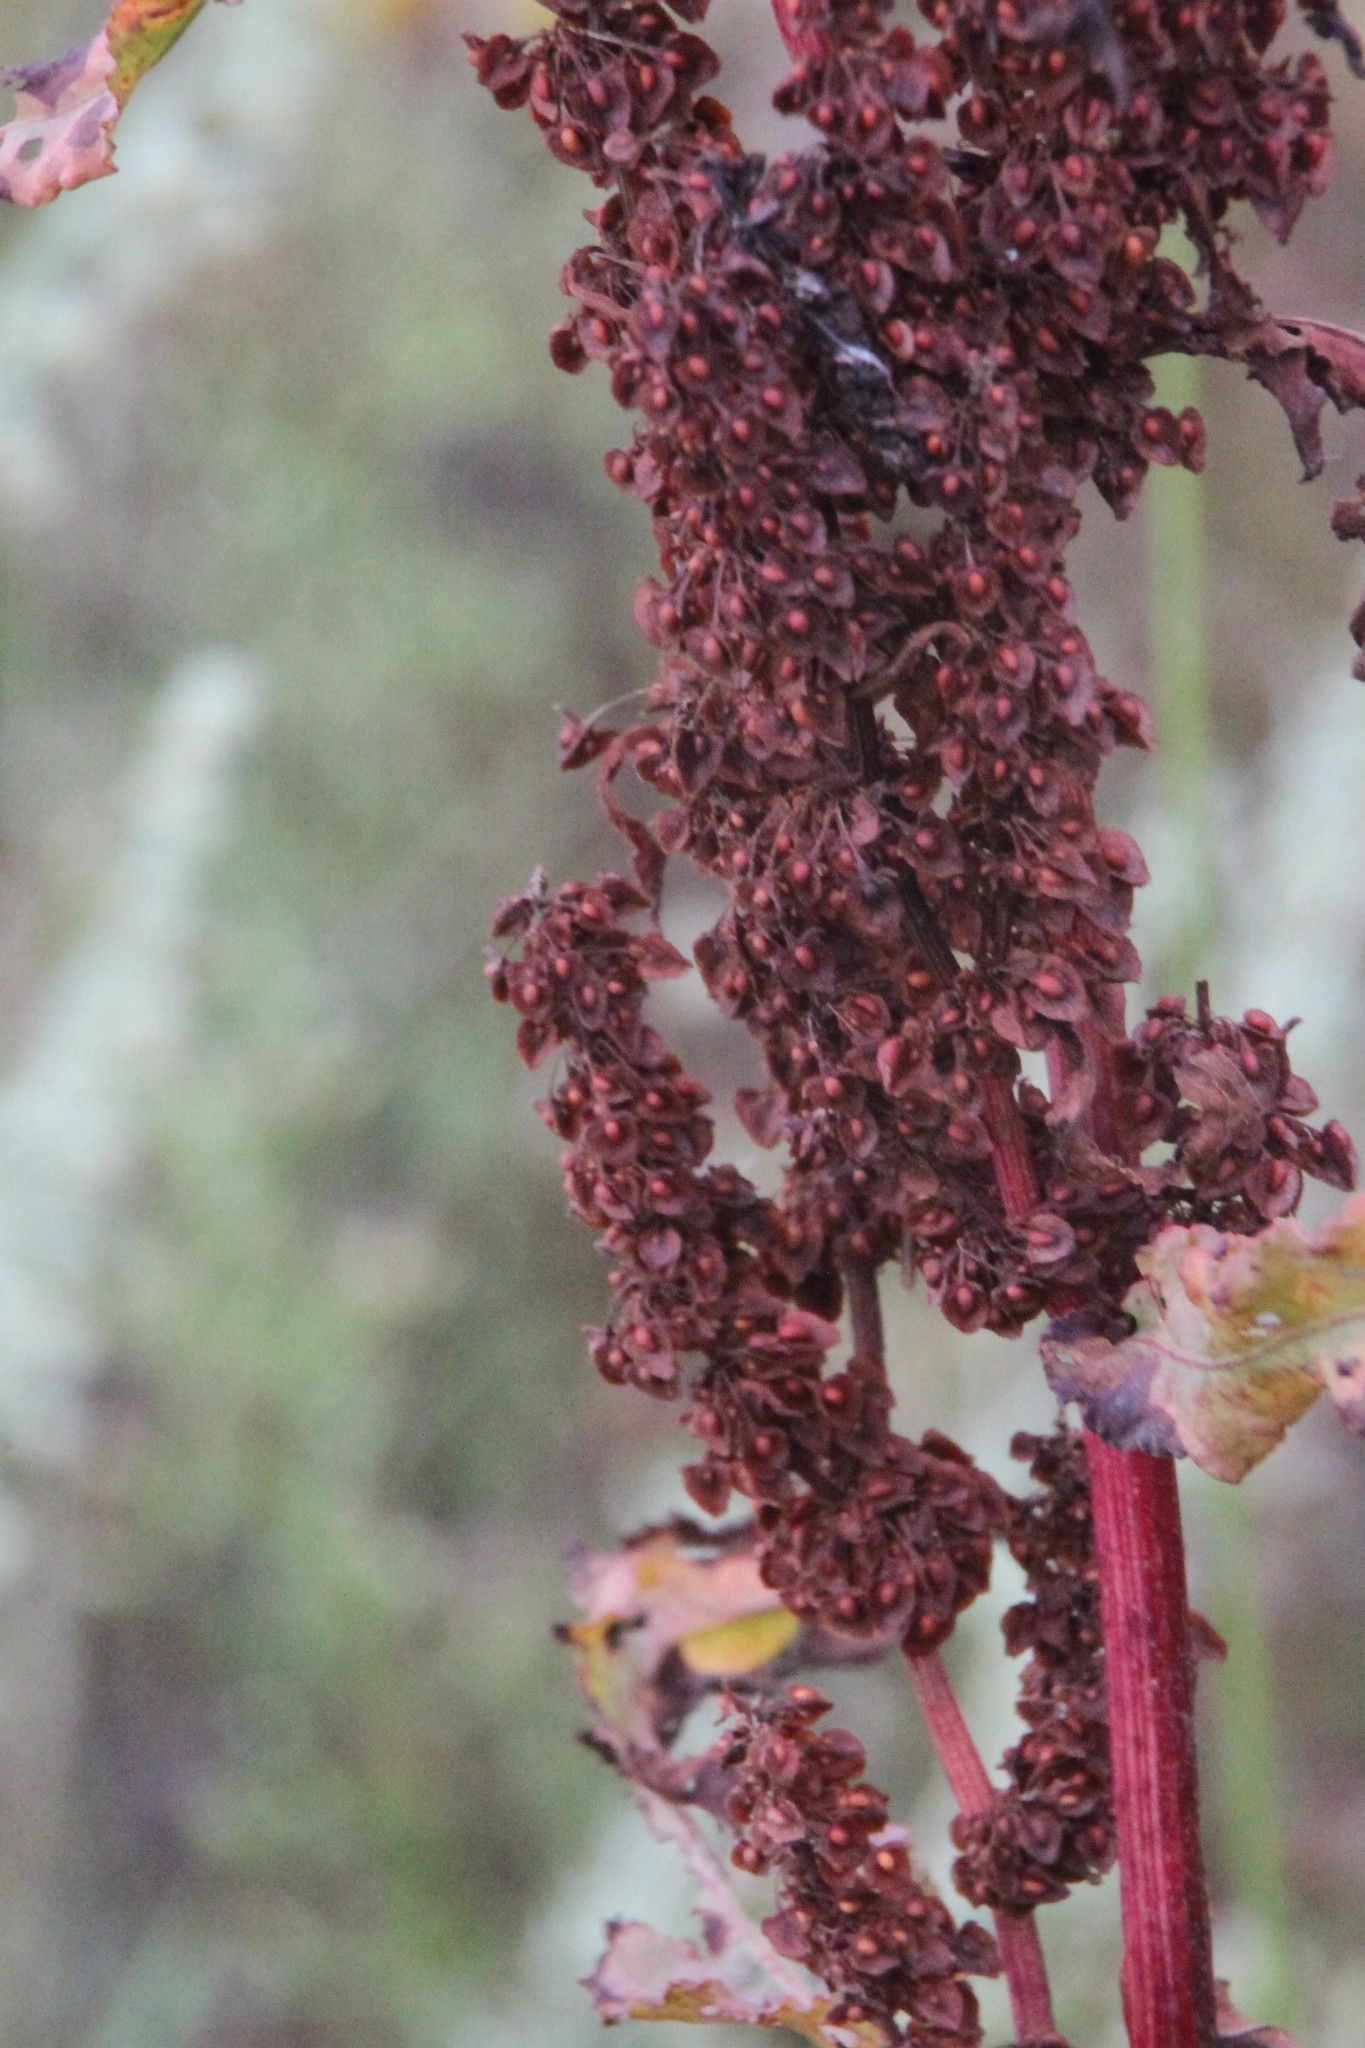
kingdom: Plantae
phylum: Tracheophyta
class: Magnoliopsida
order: Caryophyllales
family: Polygonaceae
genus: Rumex
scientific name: Rumex crispus
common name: Curled dock
